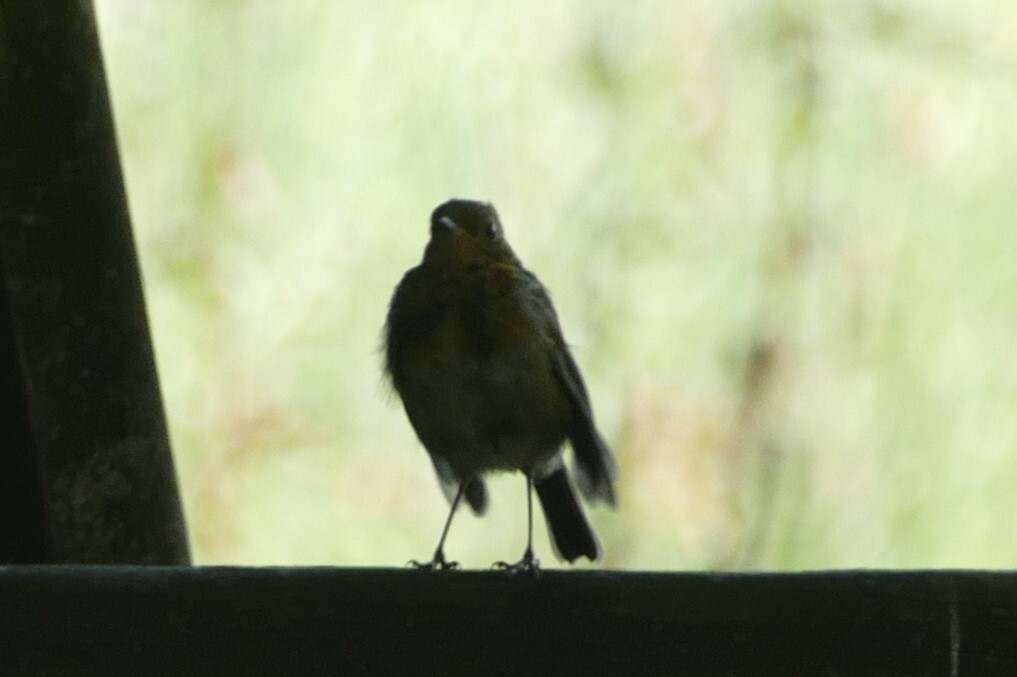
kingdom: Animalia
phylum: Chordata
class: Aves
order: Passeriformes
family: Muscicapidae
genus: Erithacus
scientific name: Erithacus rubecula
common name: European robin
